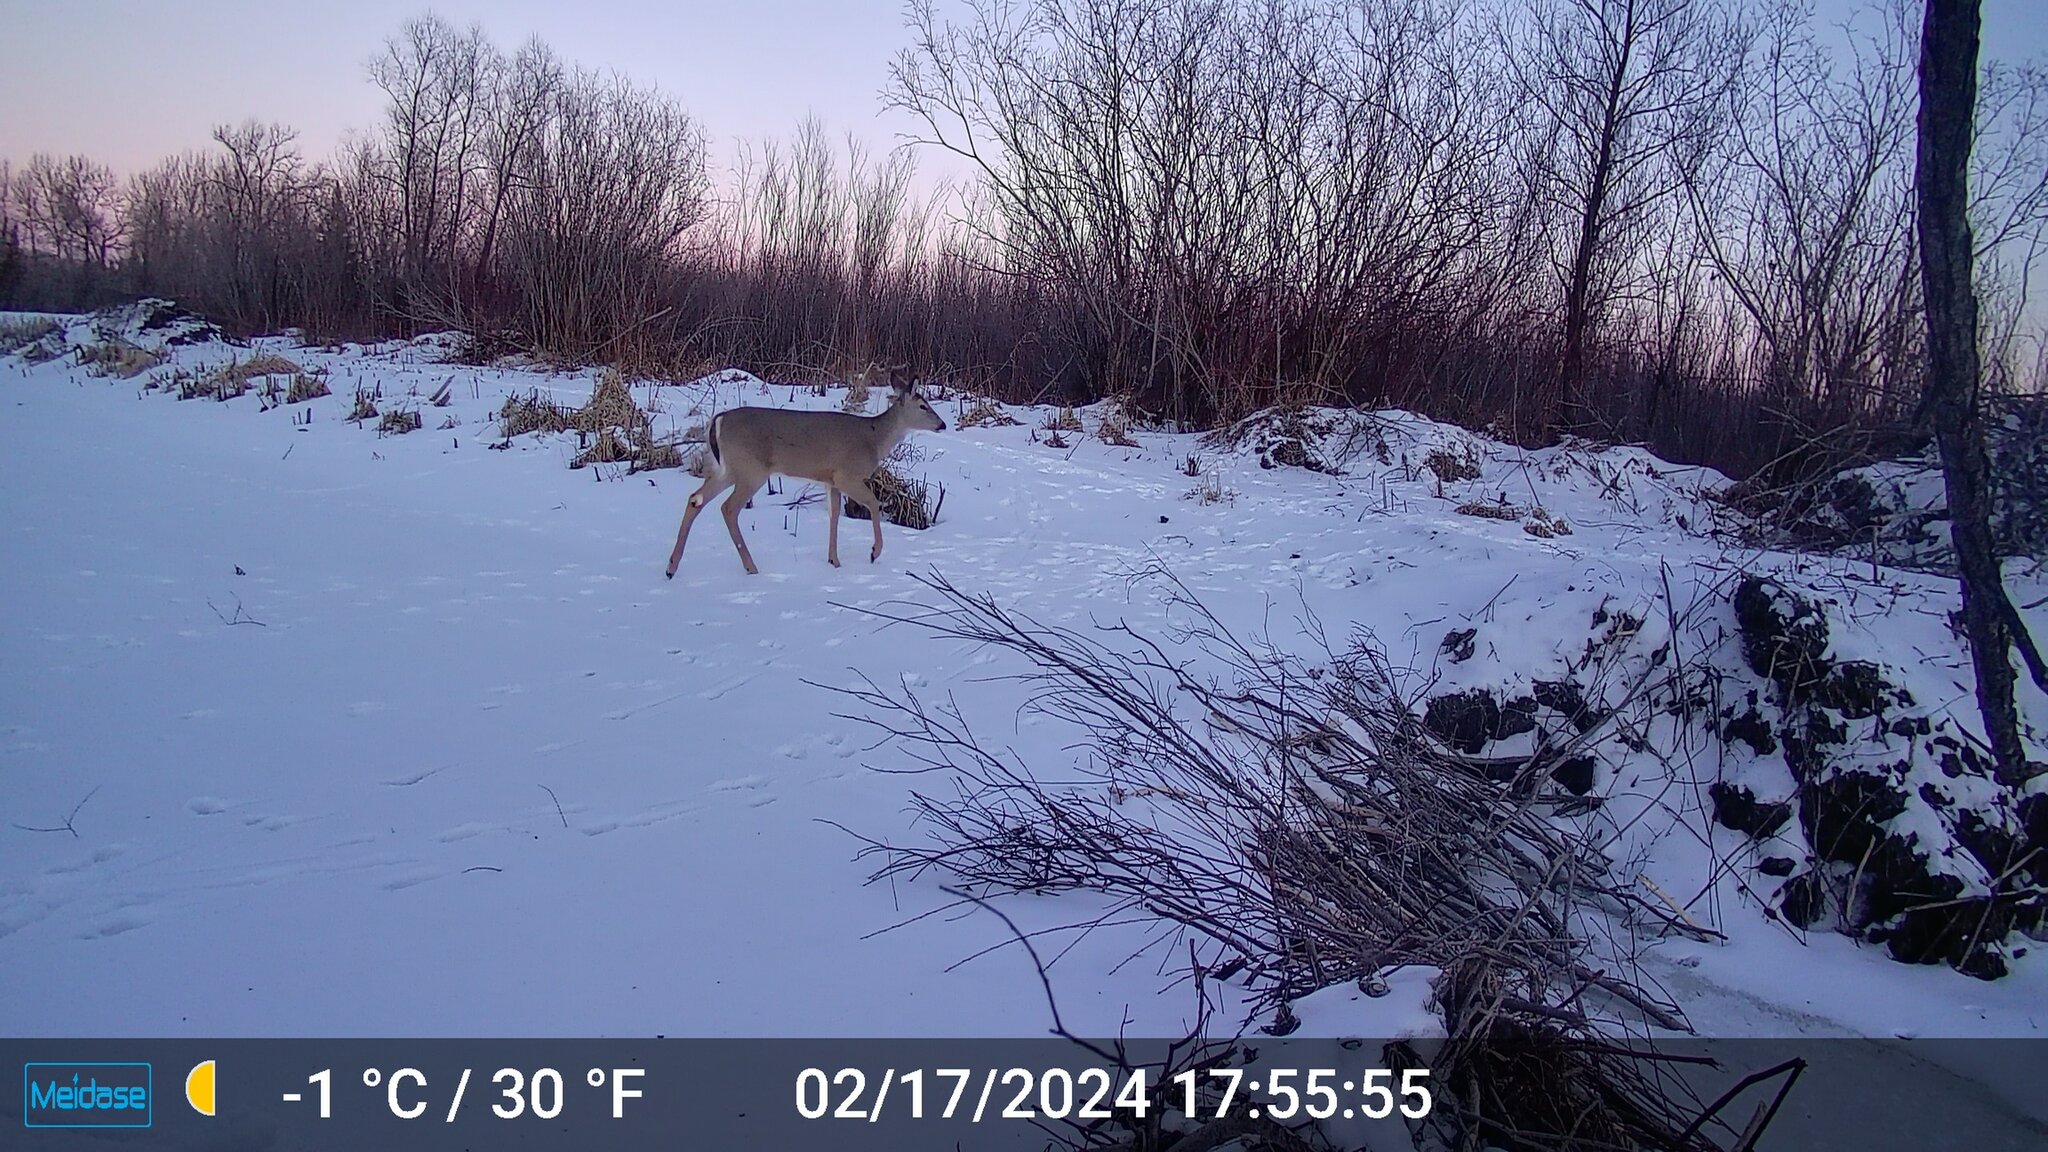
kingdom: Animalia
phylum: Chordata
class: Mammalia
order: Artiodactyla
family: Cervidae
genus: Odocoileus
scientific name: Odocoileus virginianus
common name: White-tailed deer
